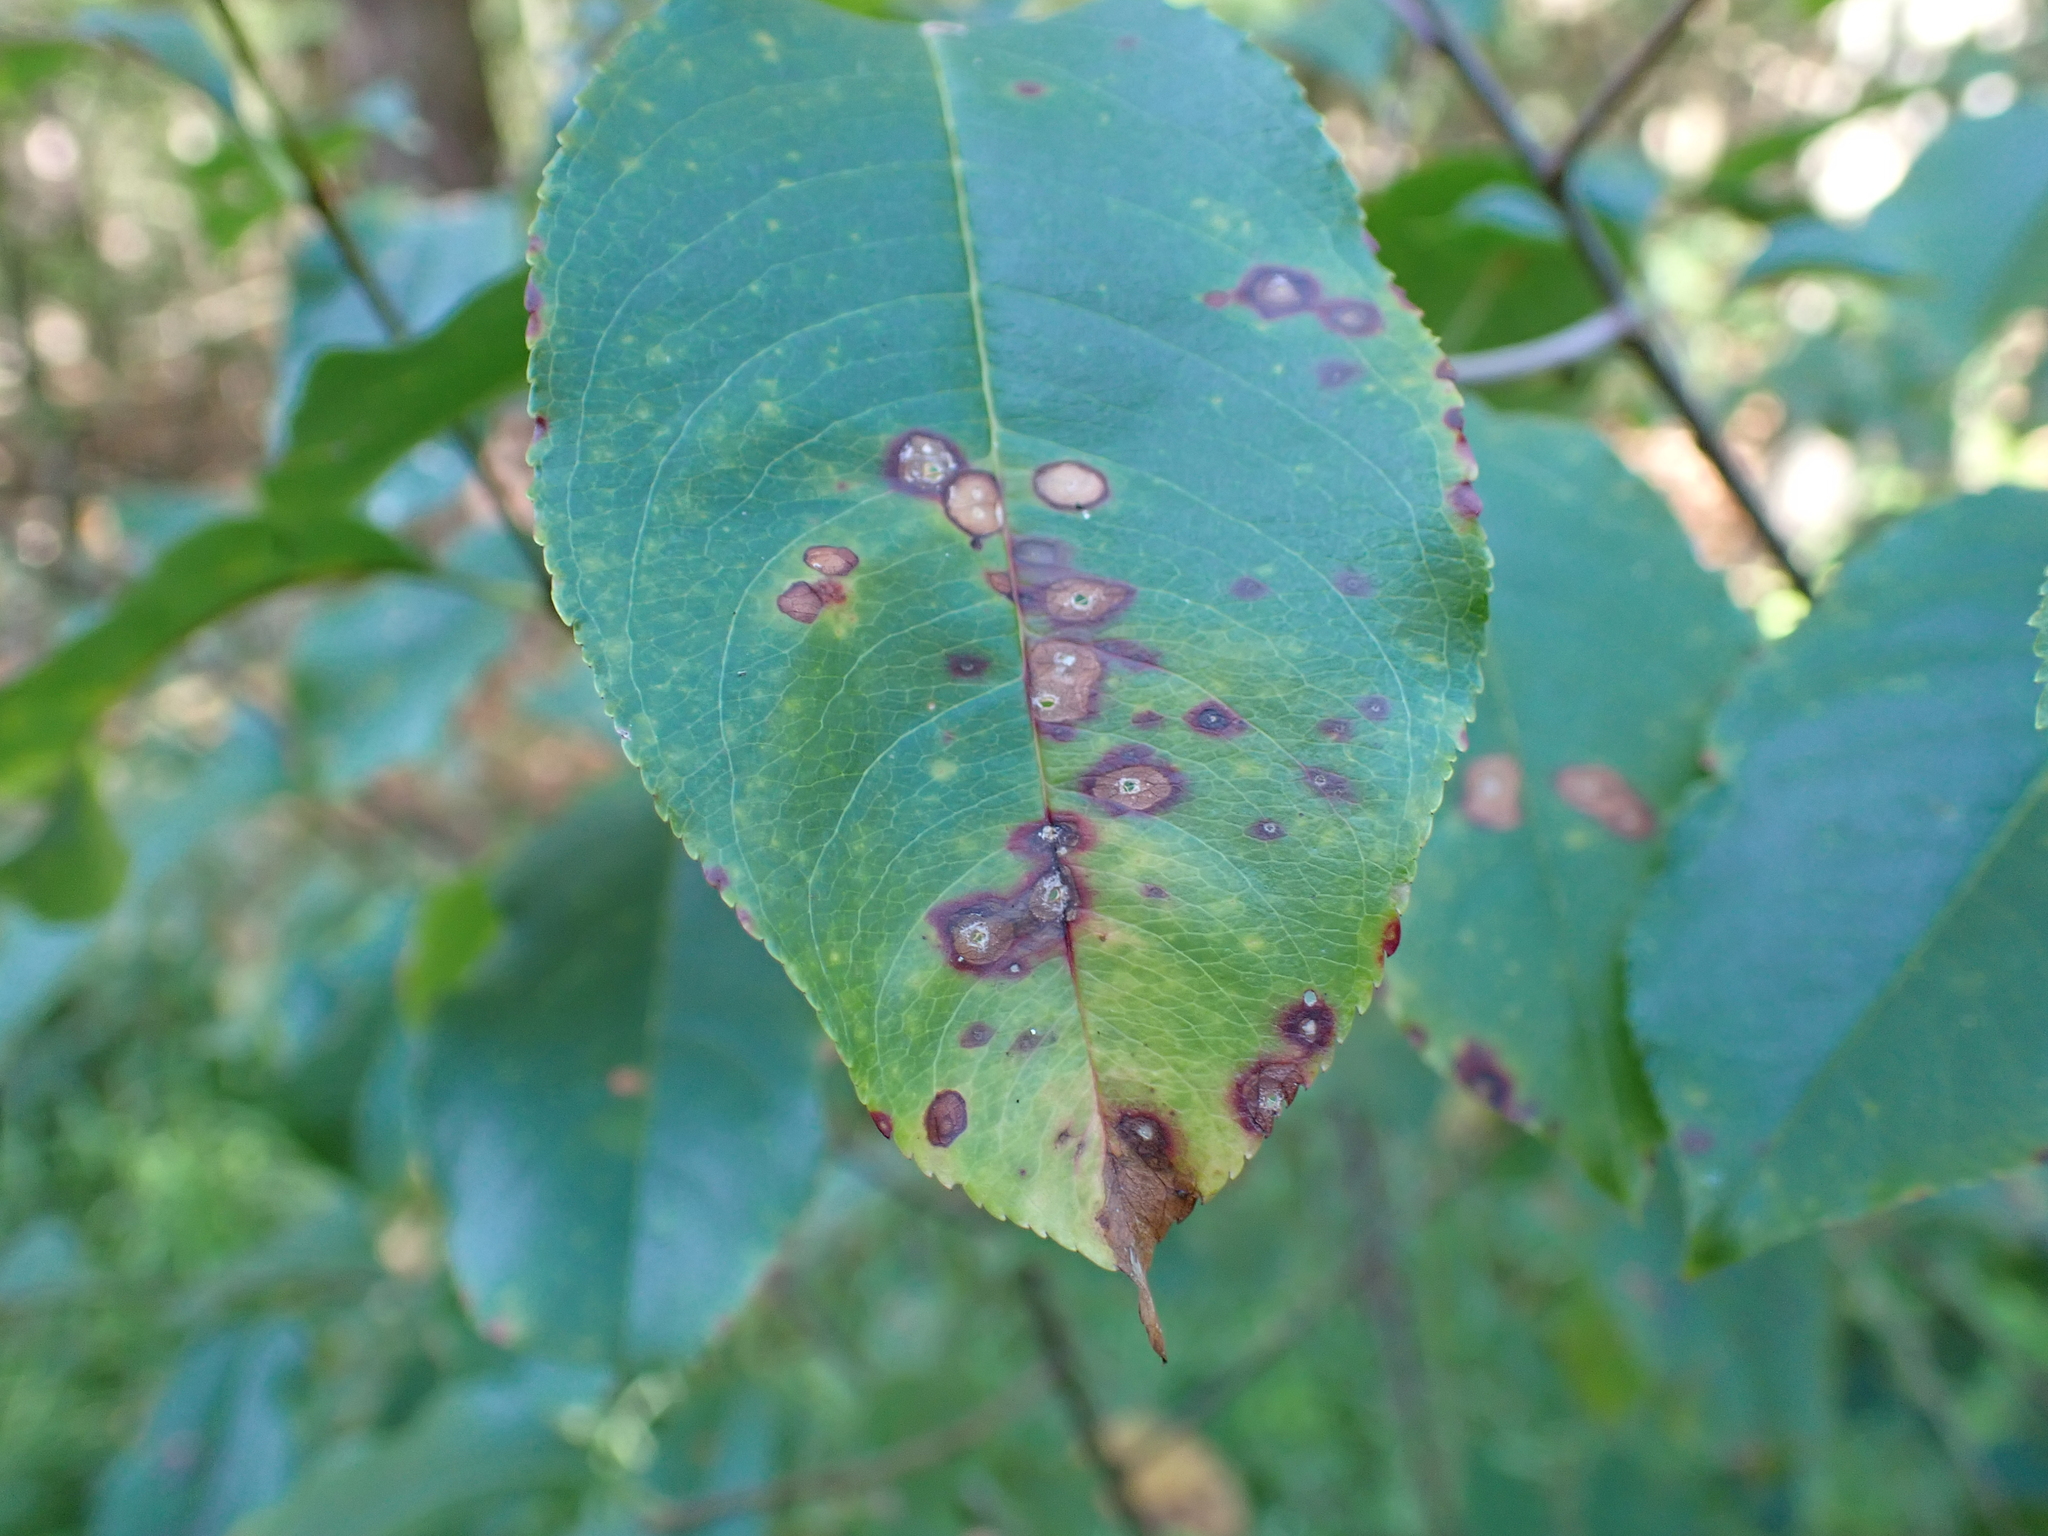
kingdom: Fungi
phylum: Ascomycota
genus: Miricatena
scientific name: Miricatena prunicola
